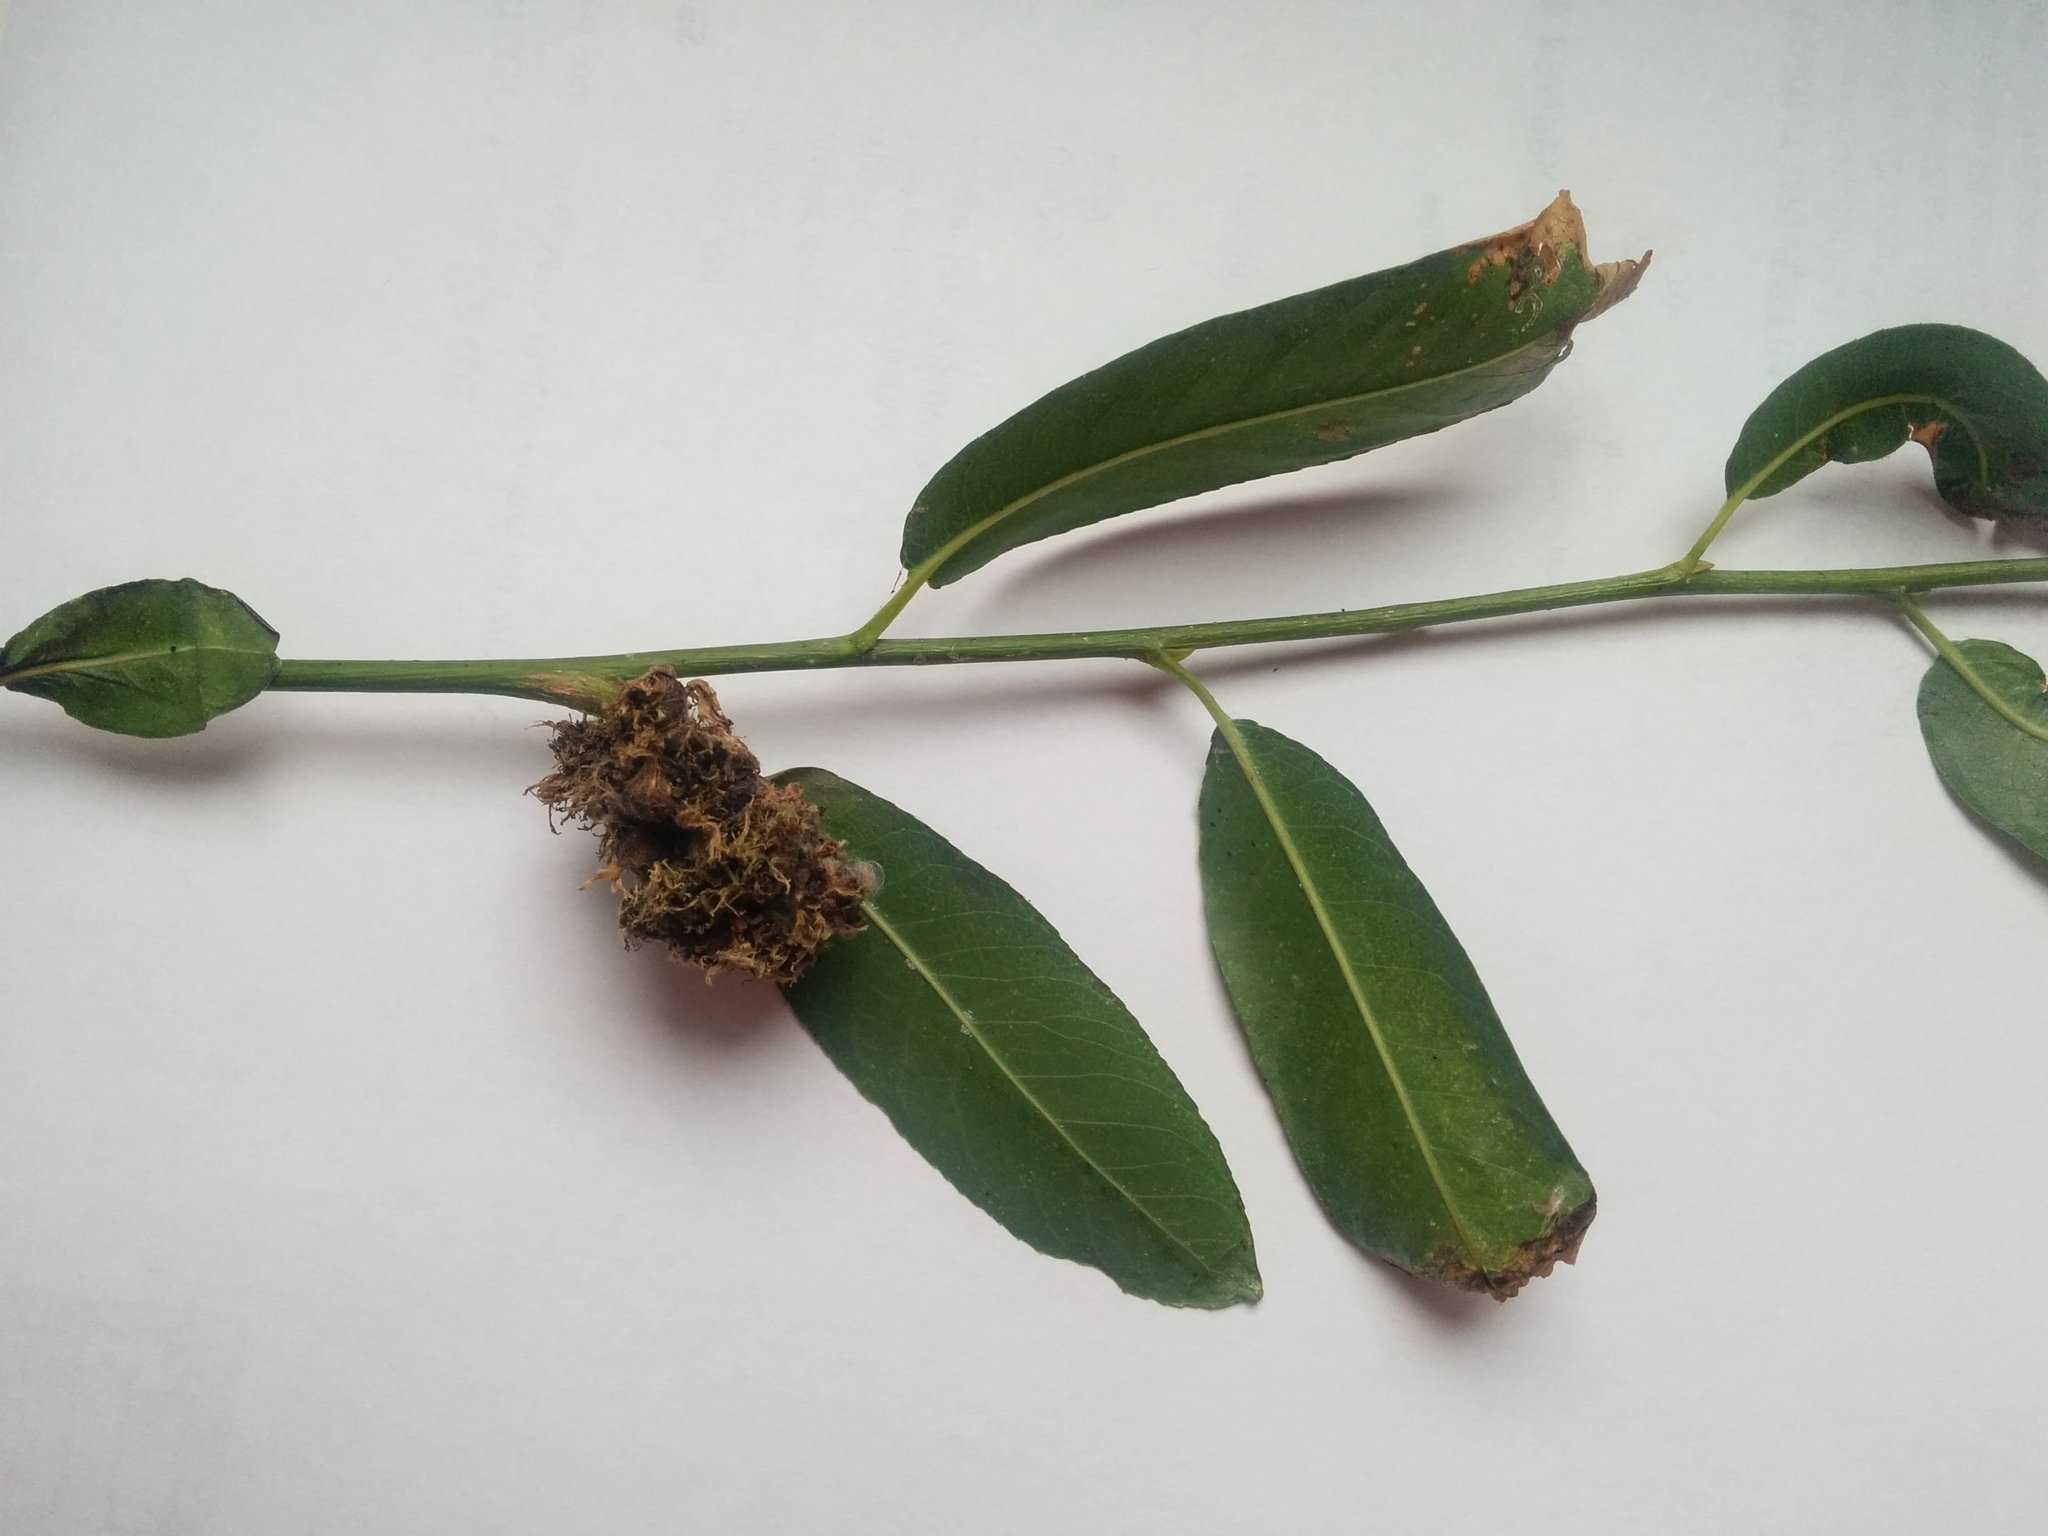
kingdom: Animalia
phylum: Arthropoda
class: Arachnida
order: Trombidiformes
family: Eriophyidae
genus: Aculops
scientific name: Aculops
